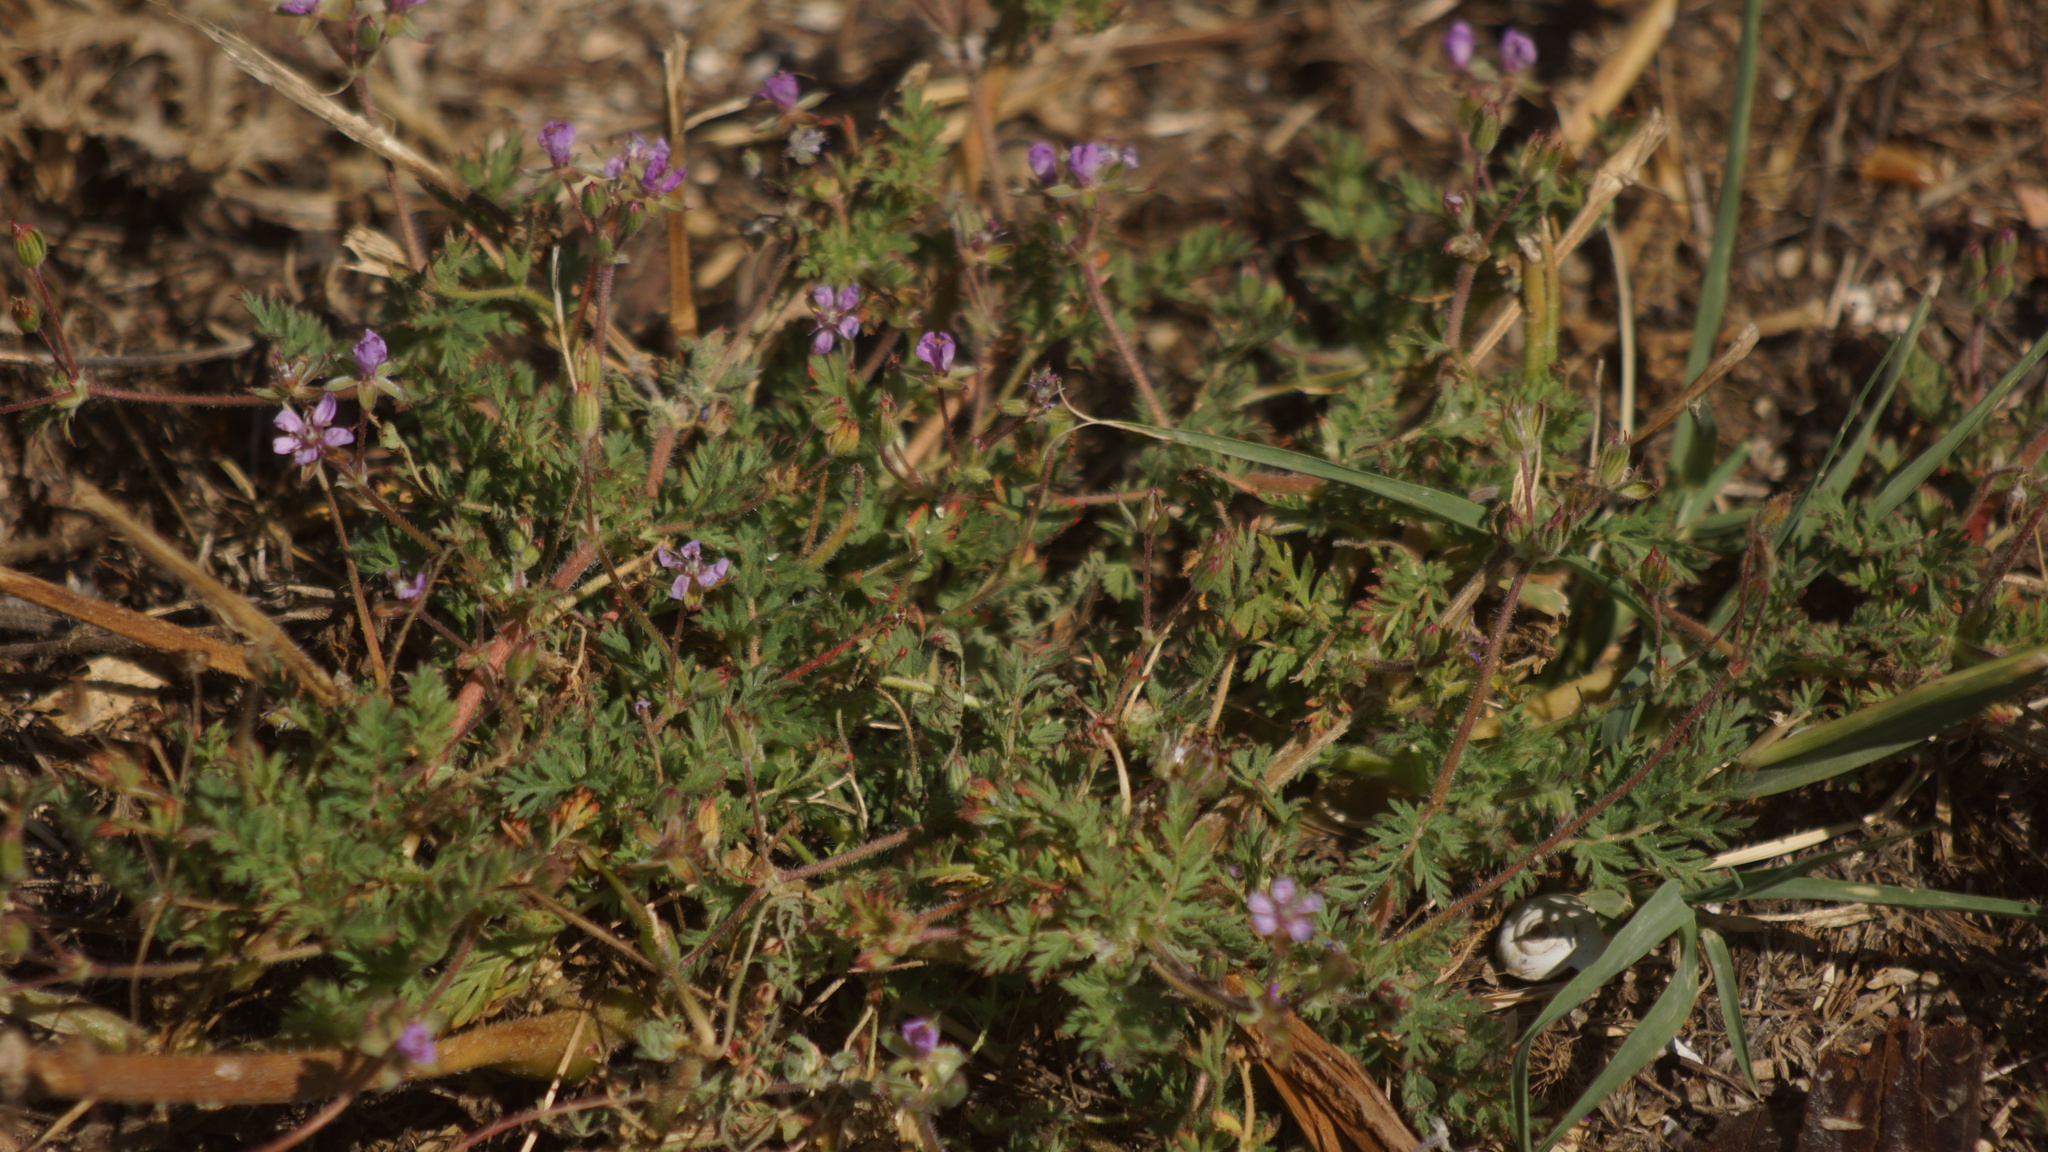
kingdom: Plantae
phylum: Tracheophyta
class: Magnoliopsida
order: Geraniales
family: Geraniaceae
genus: Erodium
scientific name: Erodium cicutarium
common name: Common stork's-bill
